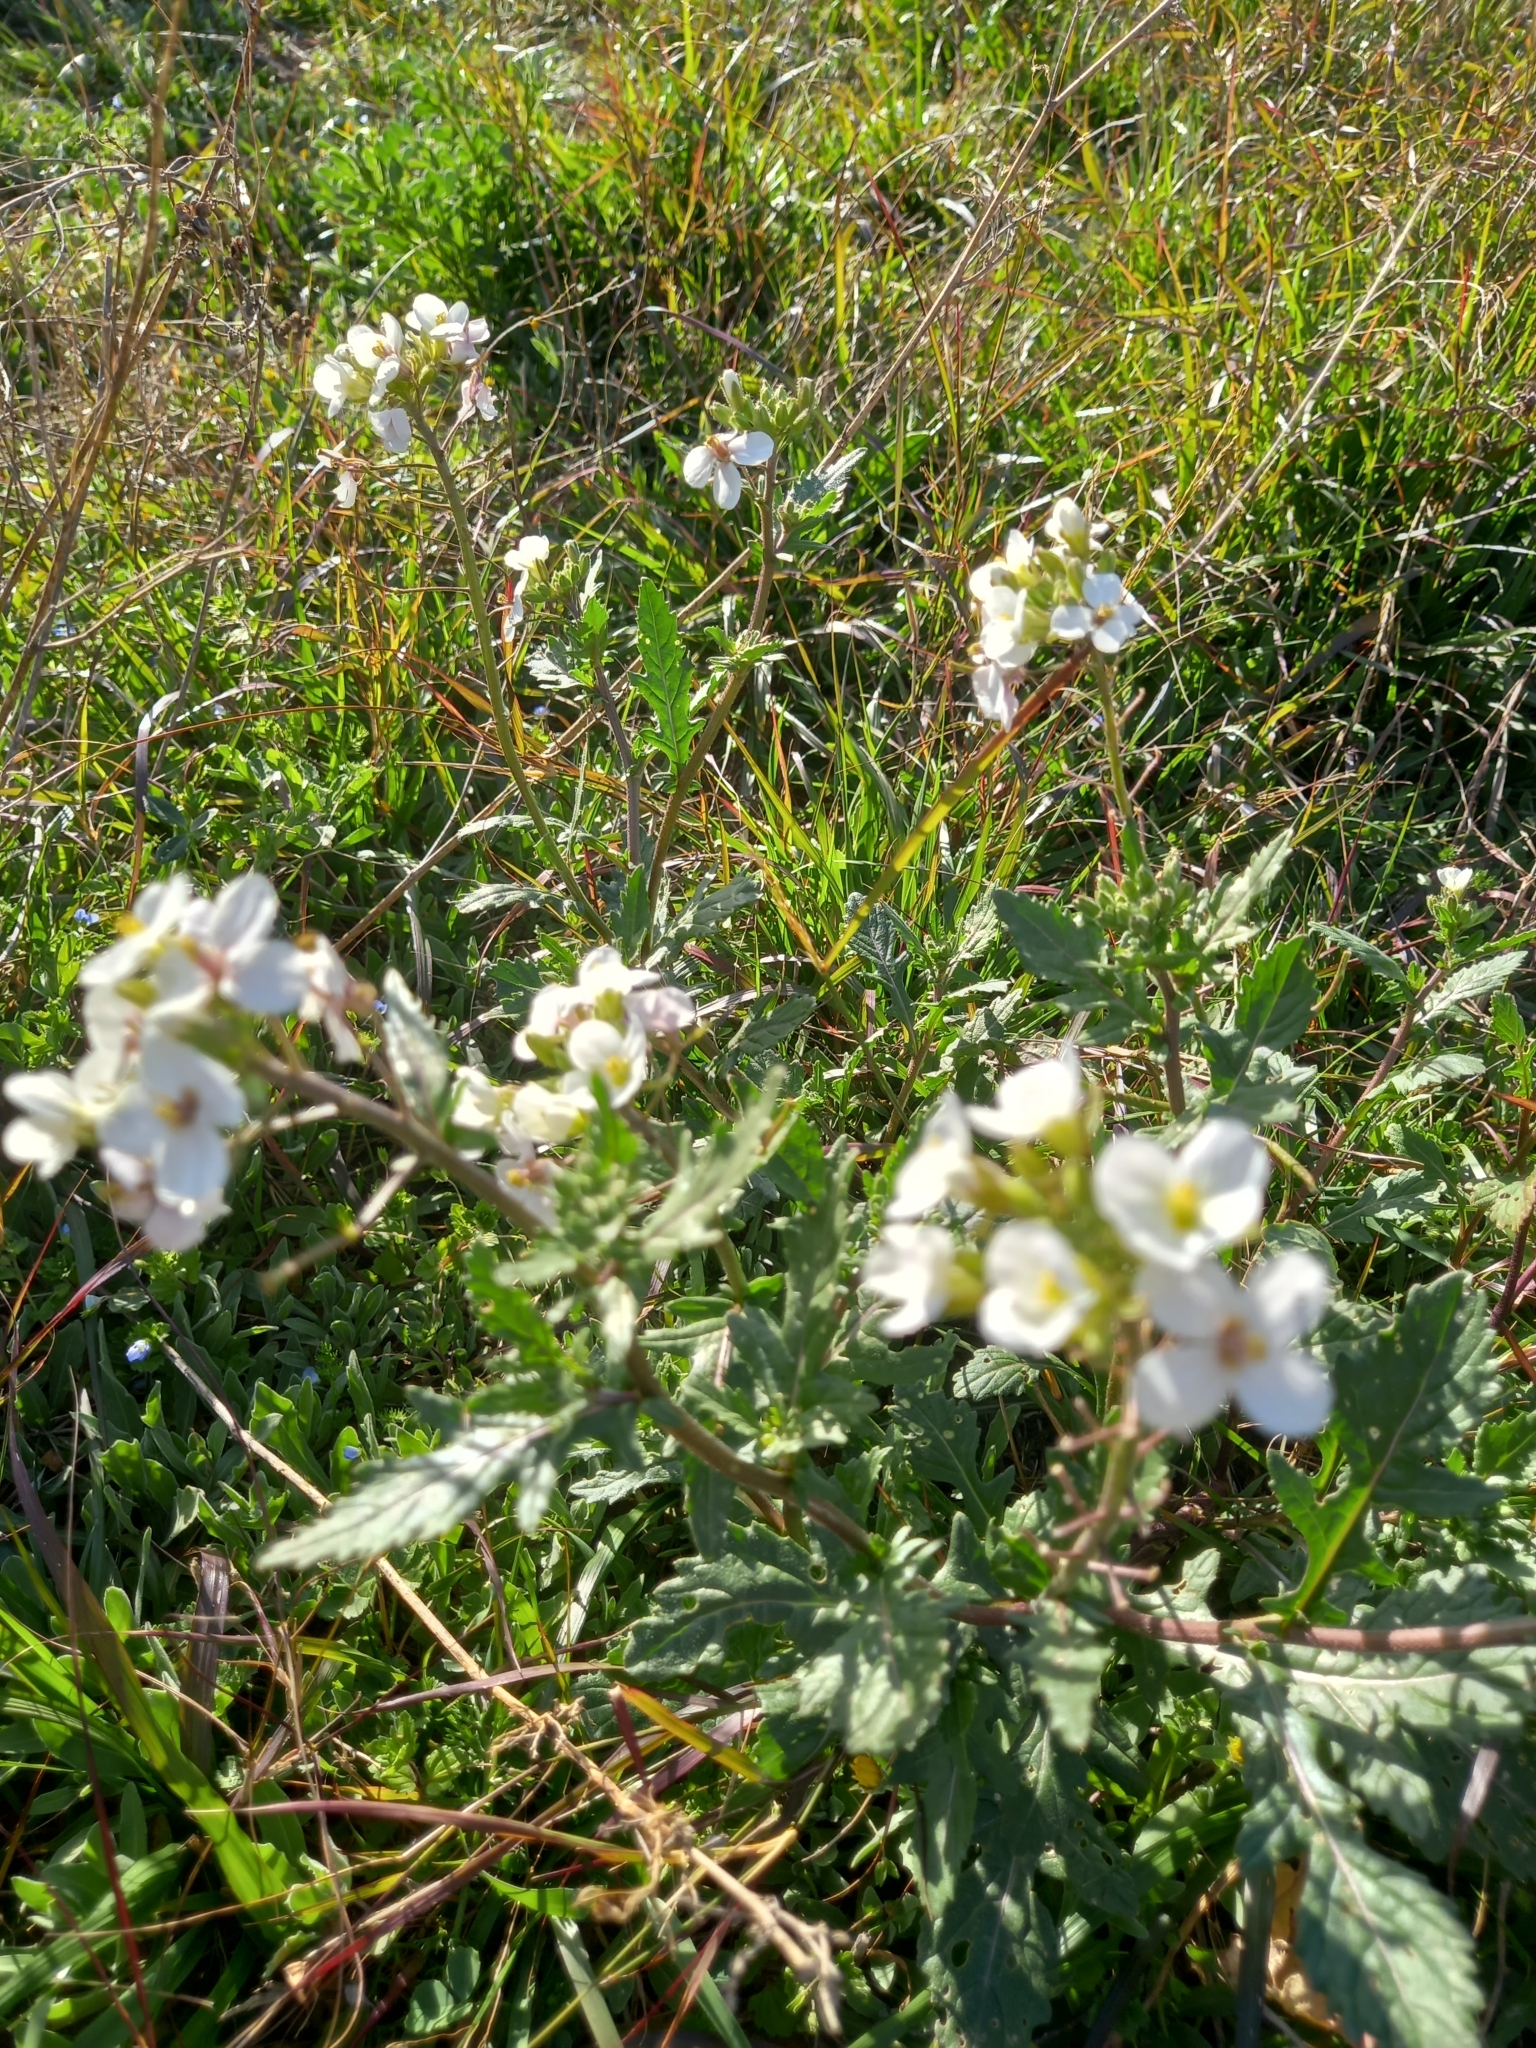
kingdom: Plantae
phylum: Tracheophyta
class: Magnoliopsida
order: Brassicales
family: Brassicaceae
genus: Diplotaxis
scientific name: Diplotaxis erucoides
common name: White rocket
